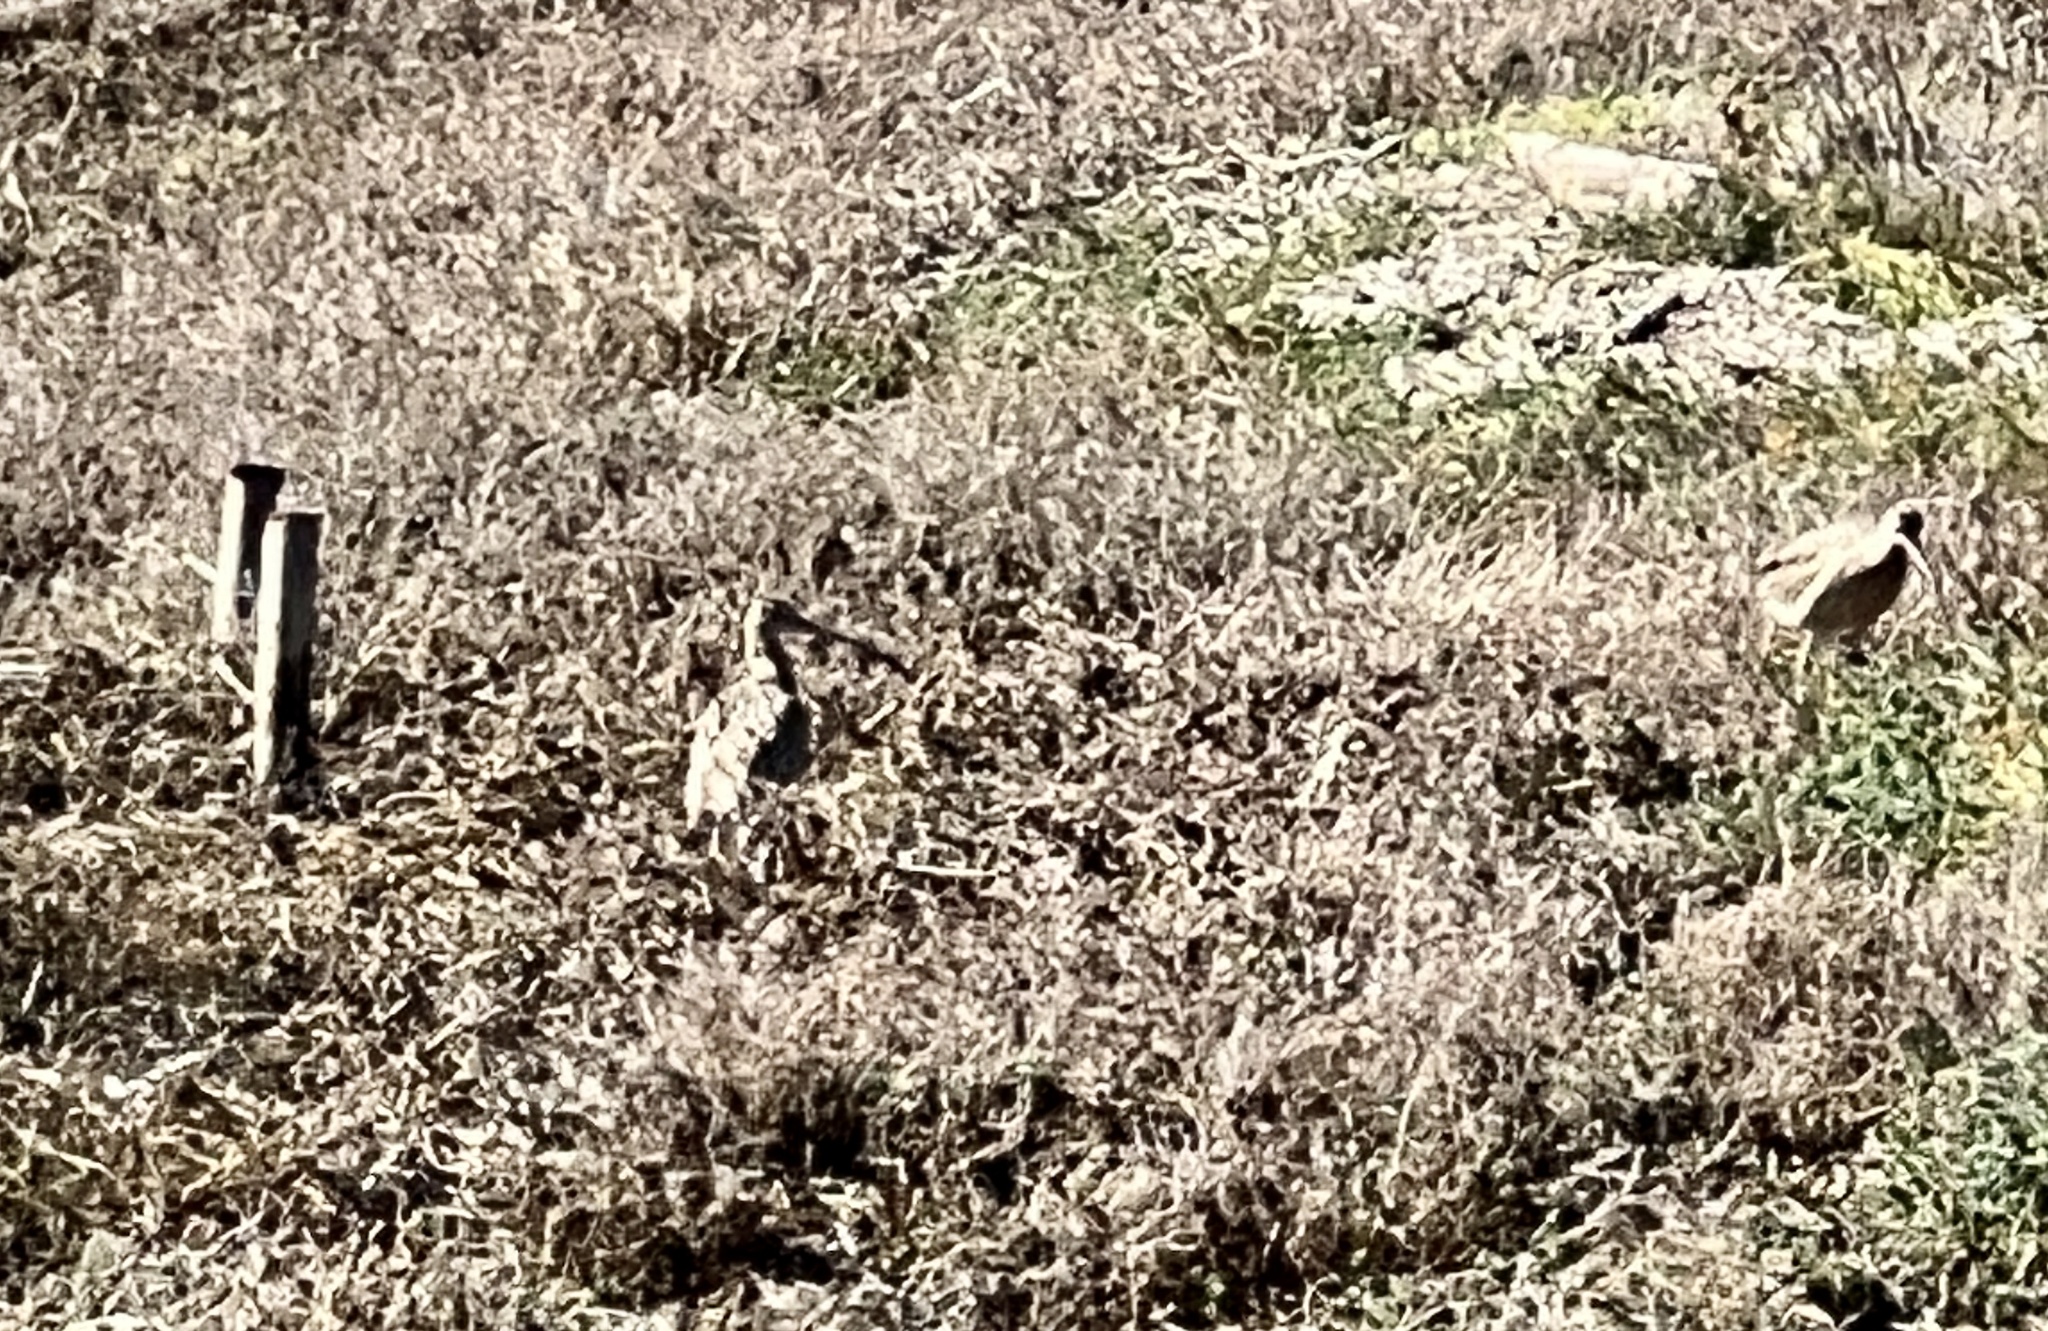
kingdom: Animalia
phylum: Chordata
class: Aves
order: Charadriiformes
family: Scolopacidae
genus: Numenius
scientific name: Numenius americanus
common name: Long-billed curlew
